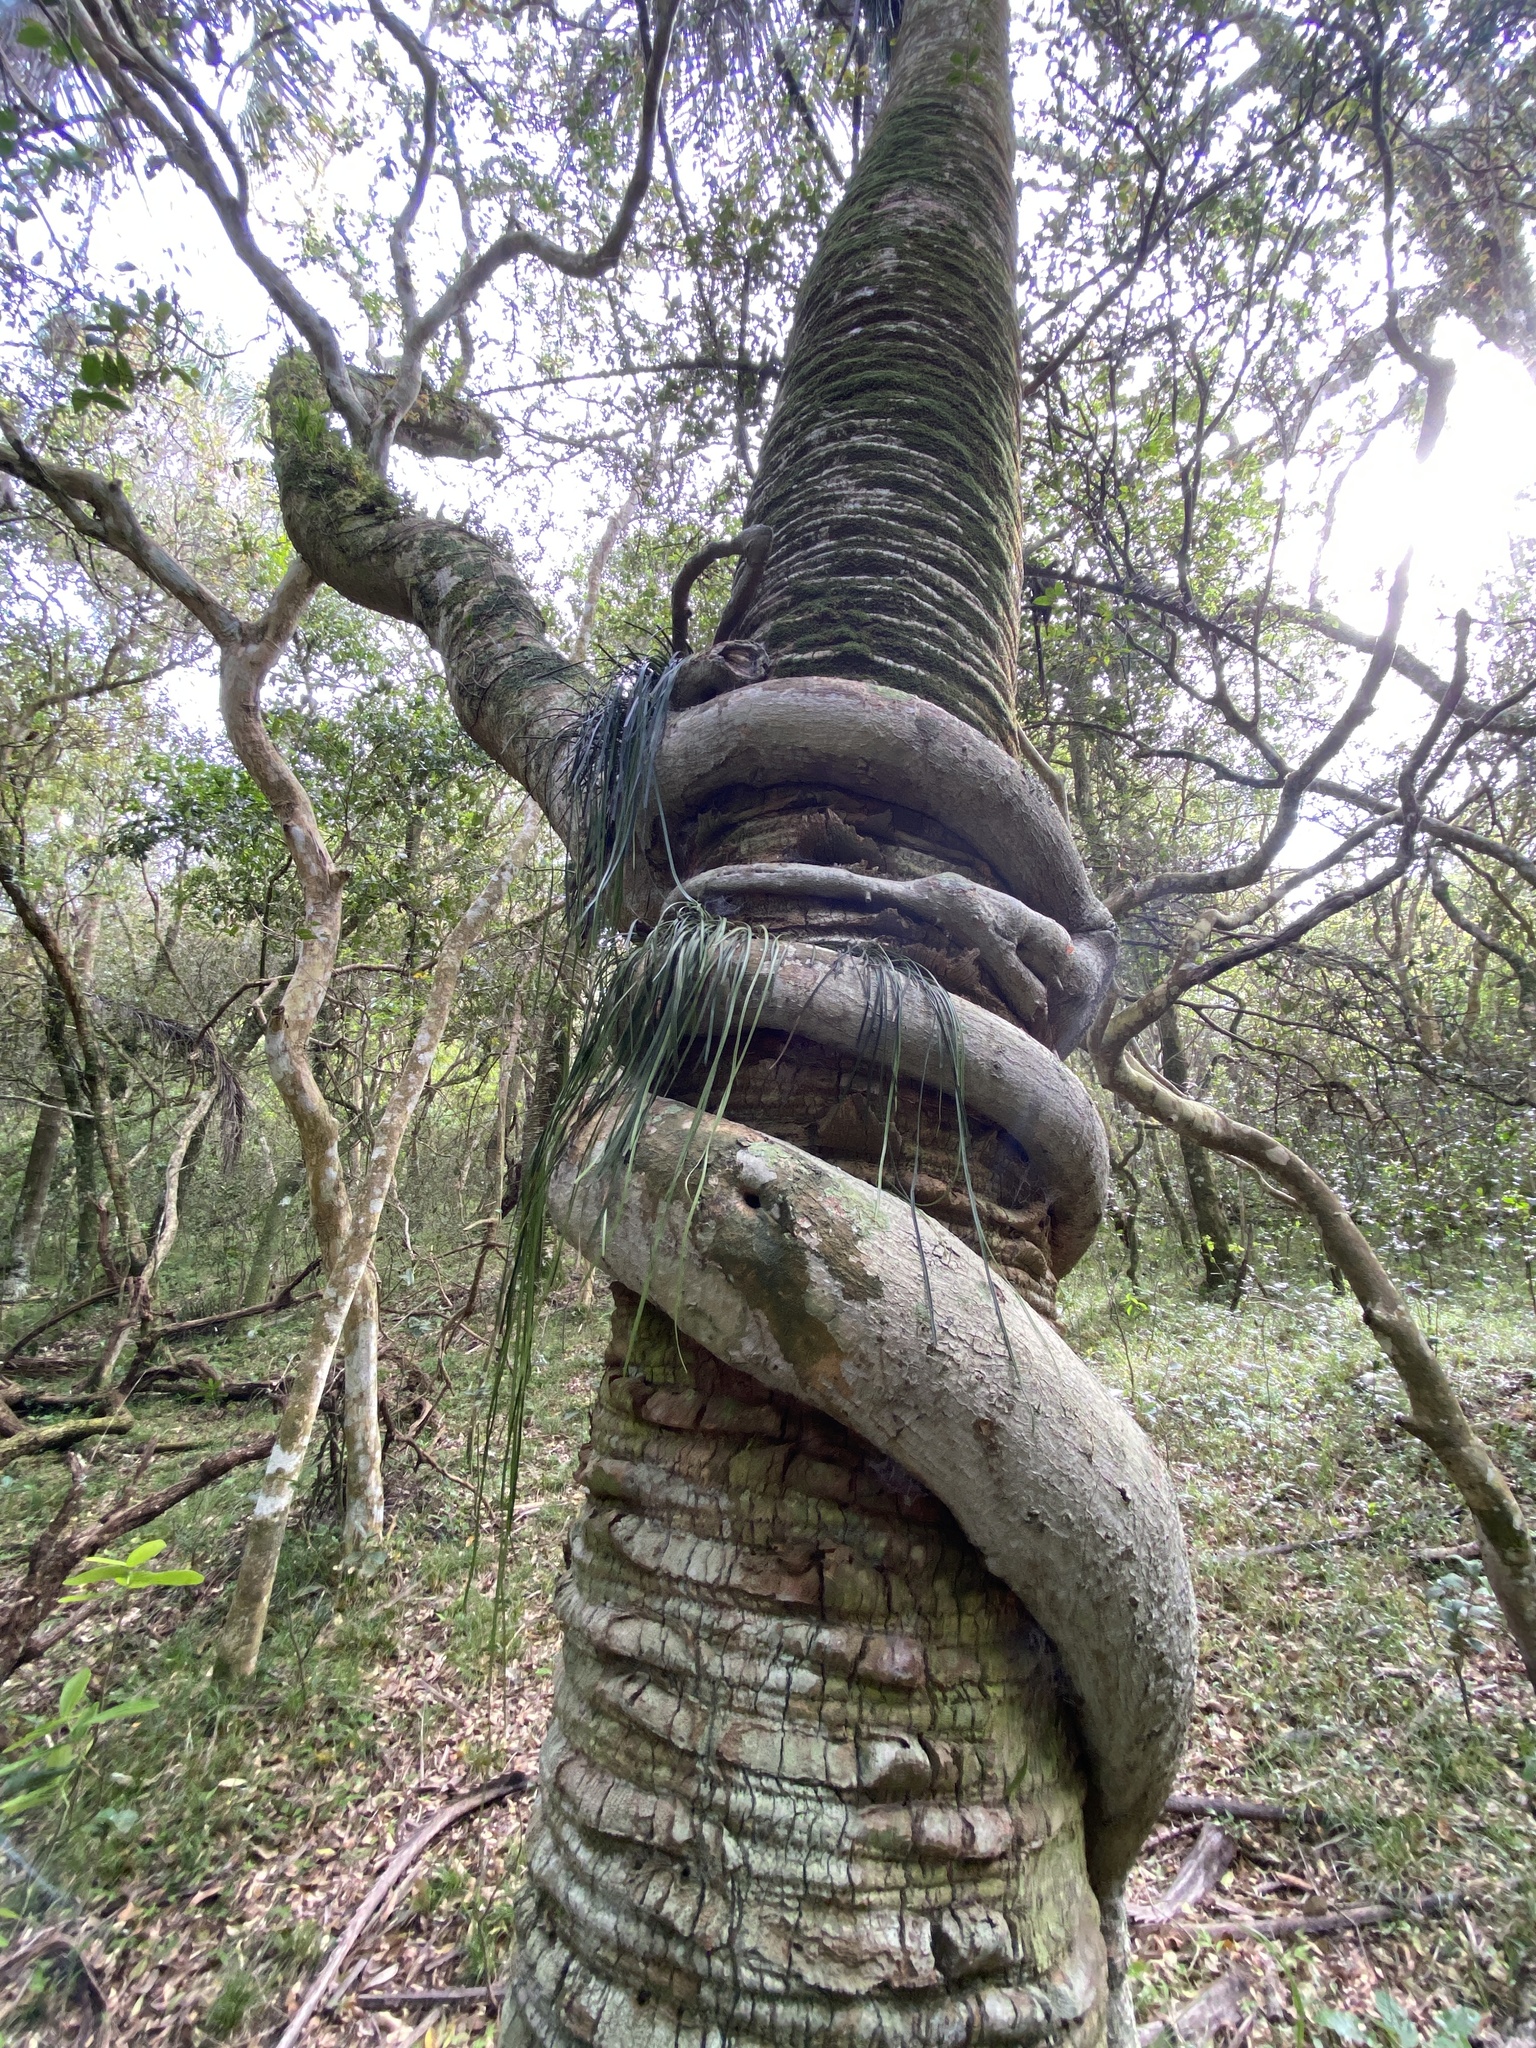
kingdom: Plantae
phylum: Tracheophyta
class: Magnoliopsida
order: Rosales
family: Moraceae
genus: Ficus
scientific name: Ficus luschnathiana
